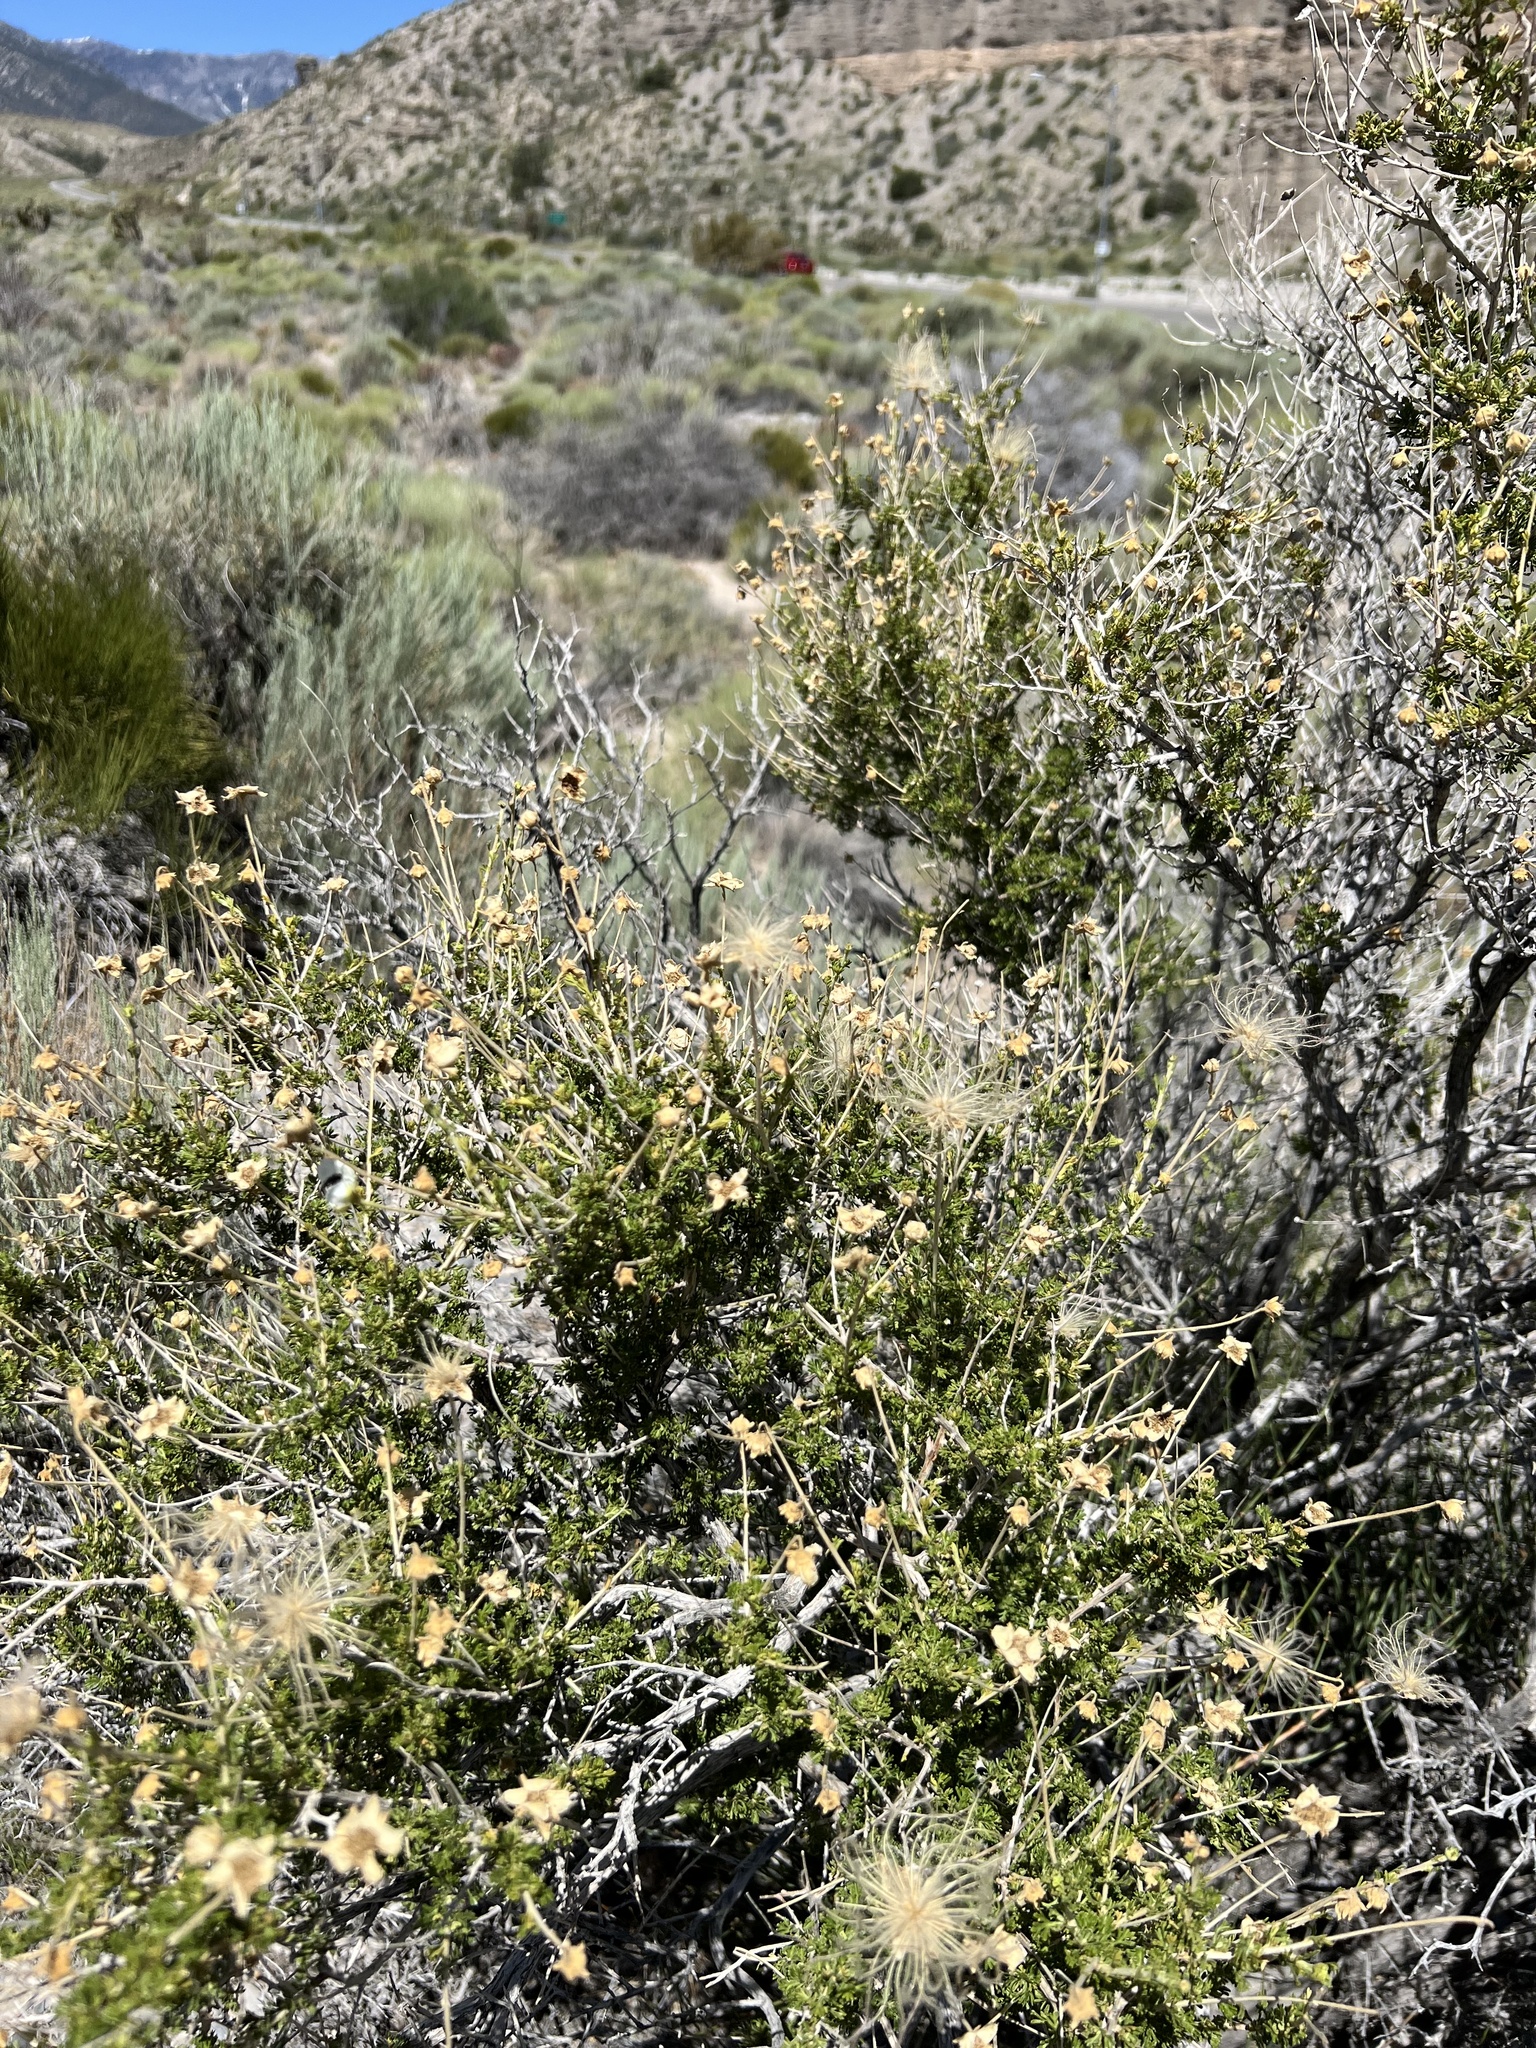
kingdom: Plantae
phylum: Tracheophyta
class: Magnoliopsida
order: Rosales
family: Rosaceae
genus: Fallugia
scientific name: Fallugia paradoxa
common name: Apache-plume
